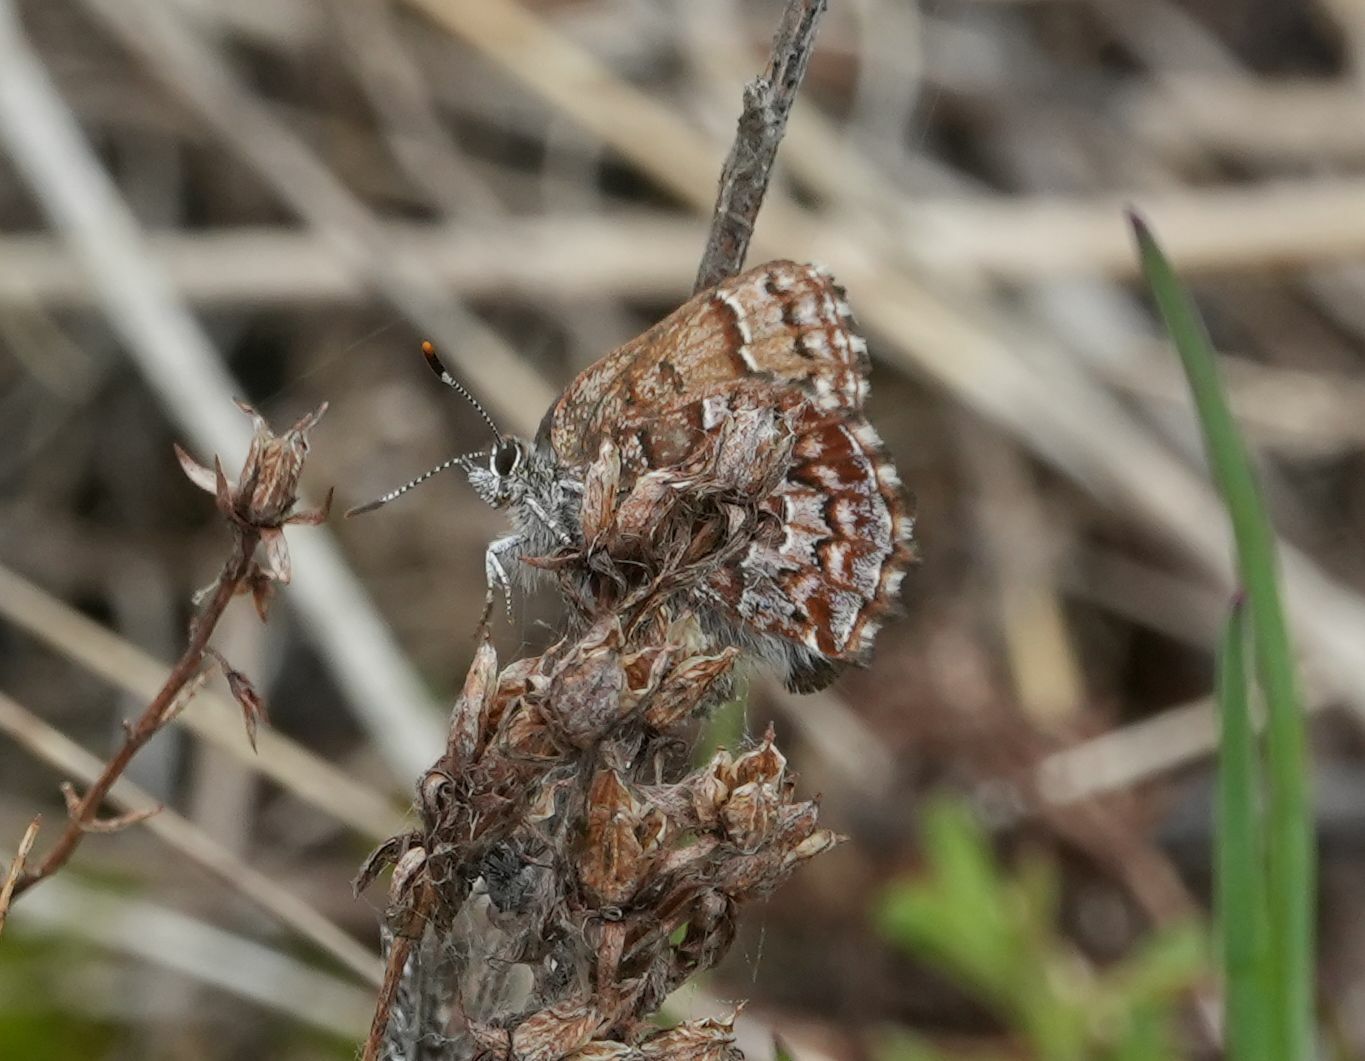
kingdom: Animalia
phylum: Arthropoda
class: Insecta
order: Lepidoptera
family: Lycaenidae
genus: Incisalia
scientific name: Incisalia niphon
